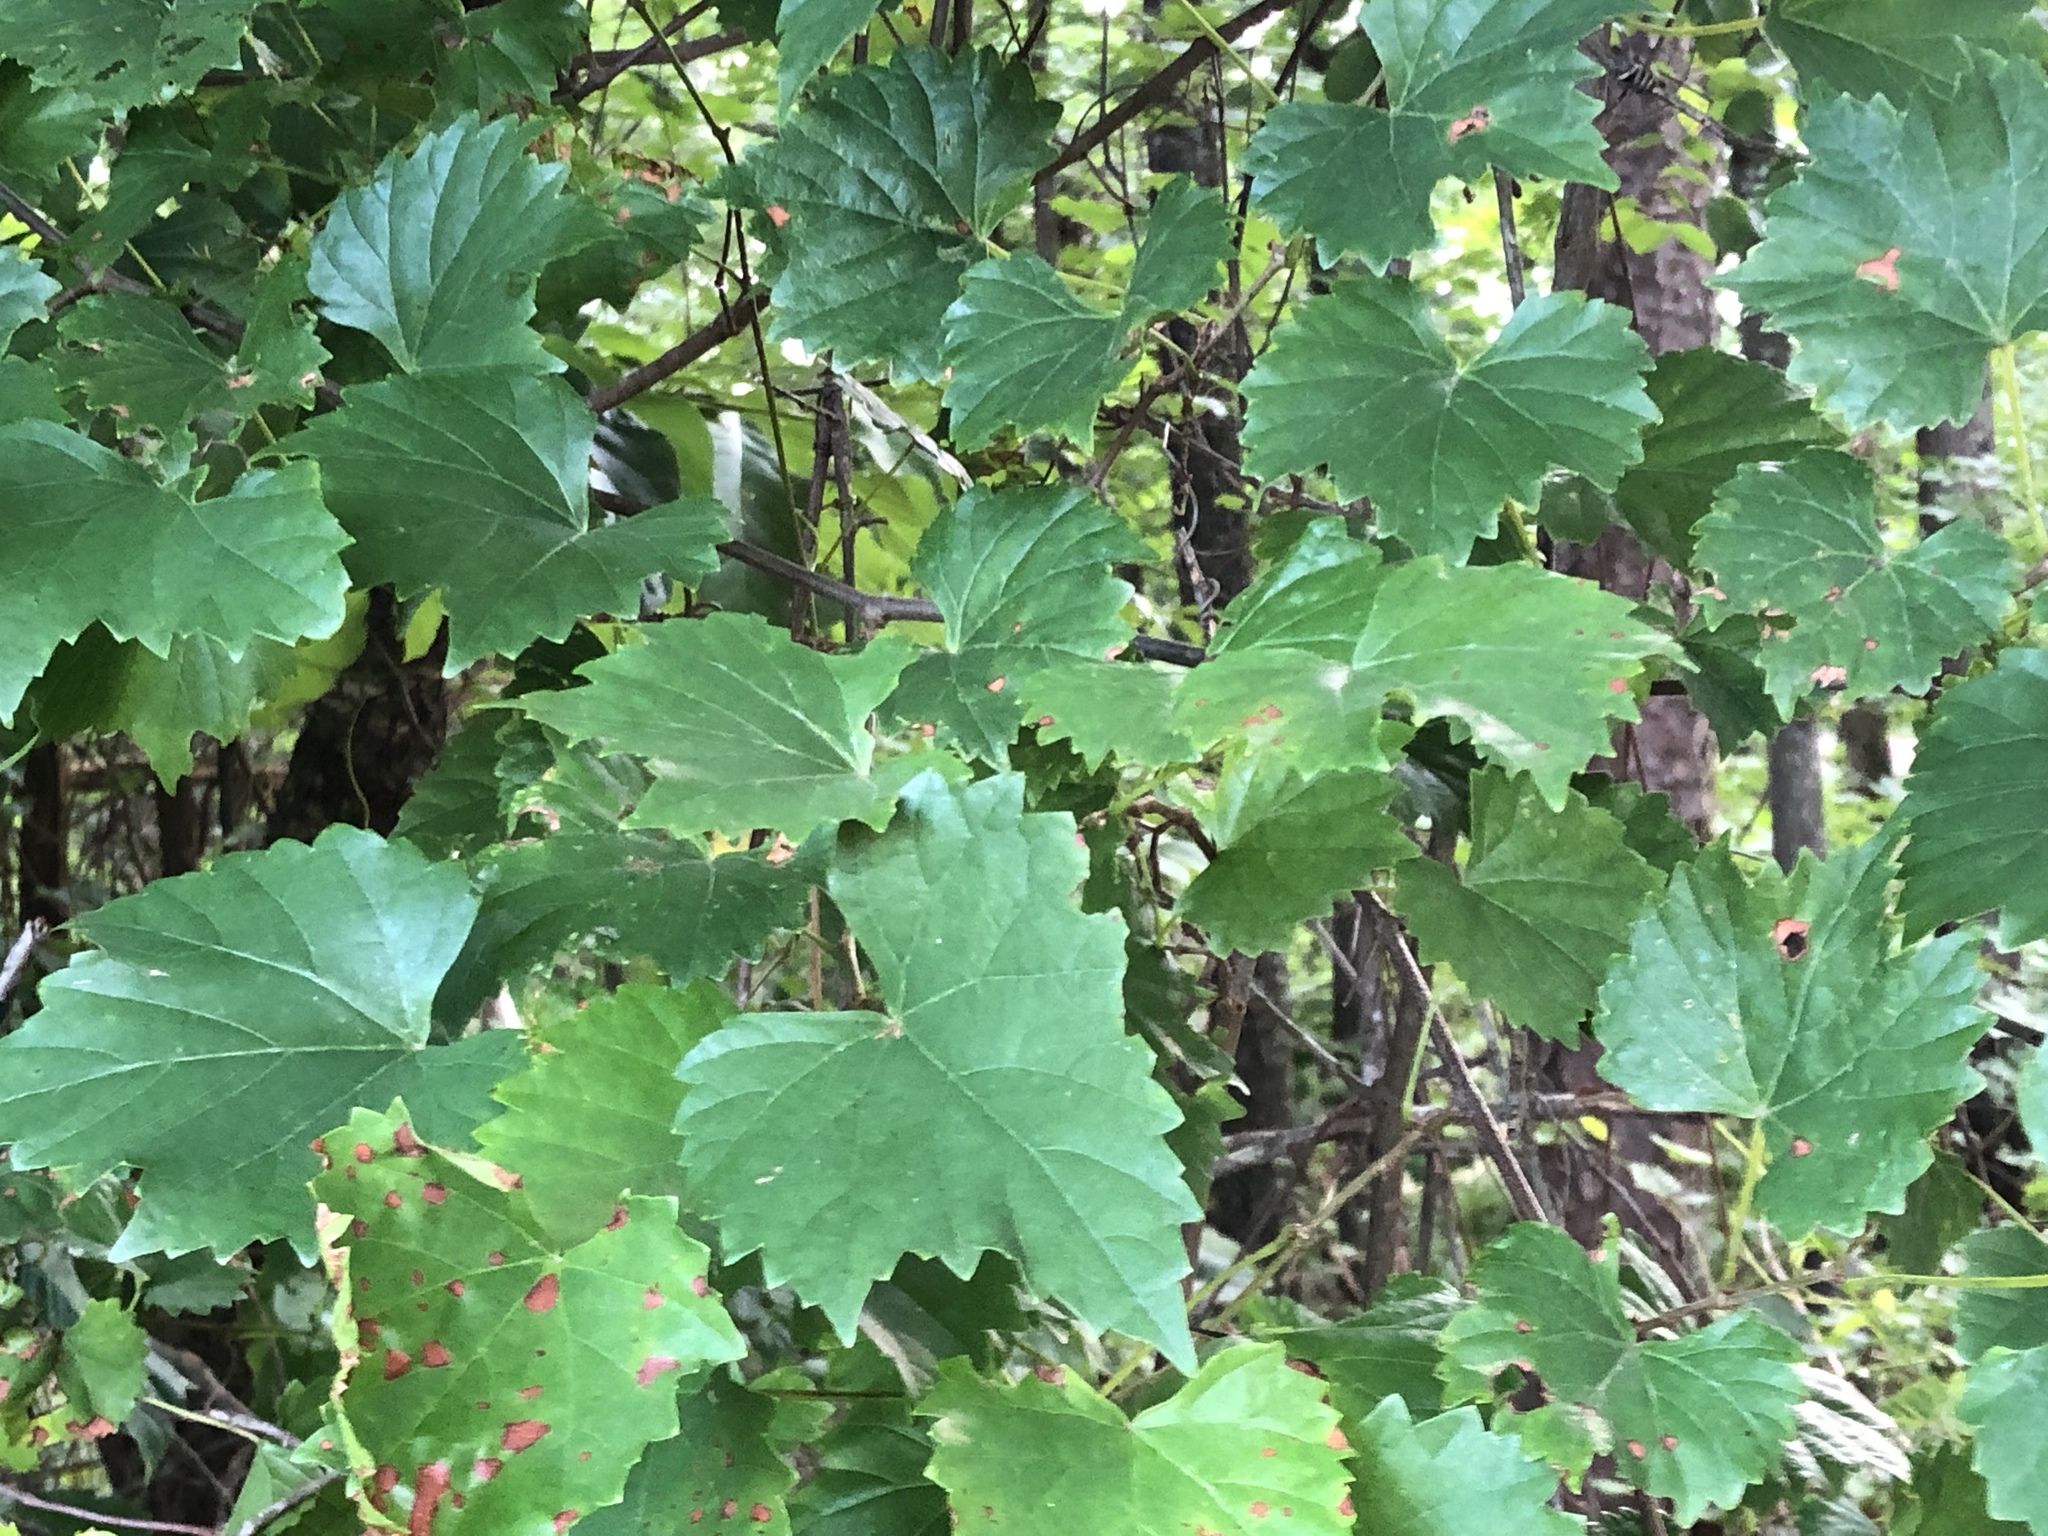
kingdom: Plantae
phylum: Tracheophyta
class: Magnoliopsida
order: Vitales
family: Vitaceae
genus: Vitis
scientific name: Vitis rotundifolia
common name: Muscadine grape
